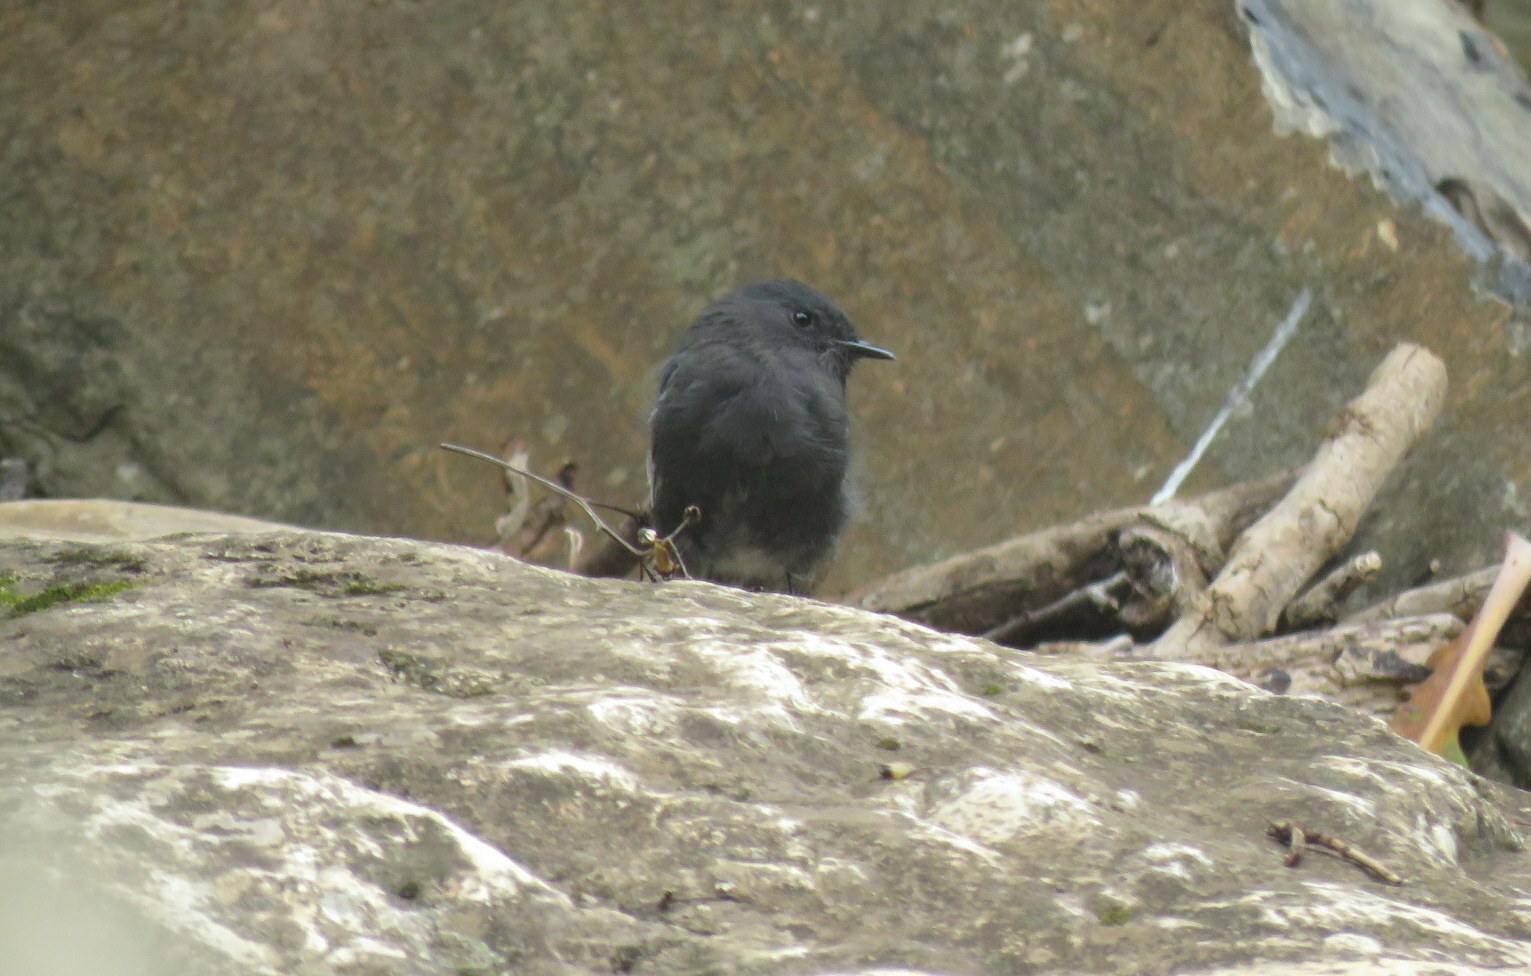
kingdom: Animalia
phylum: Chordata
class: Aves
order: Passeriformes
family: Tyrannidae
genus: Sayornis
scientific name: Sayornis nigricans
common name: Black phoebe
